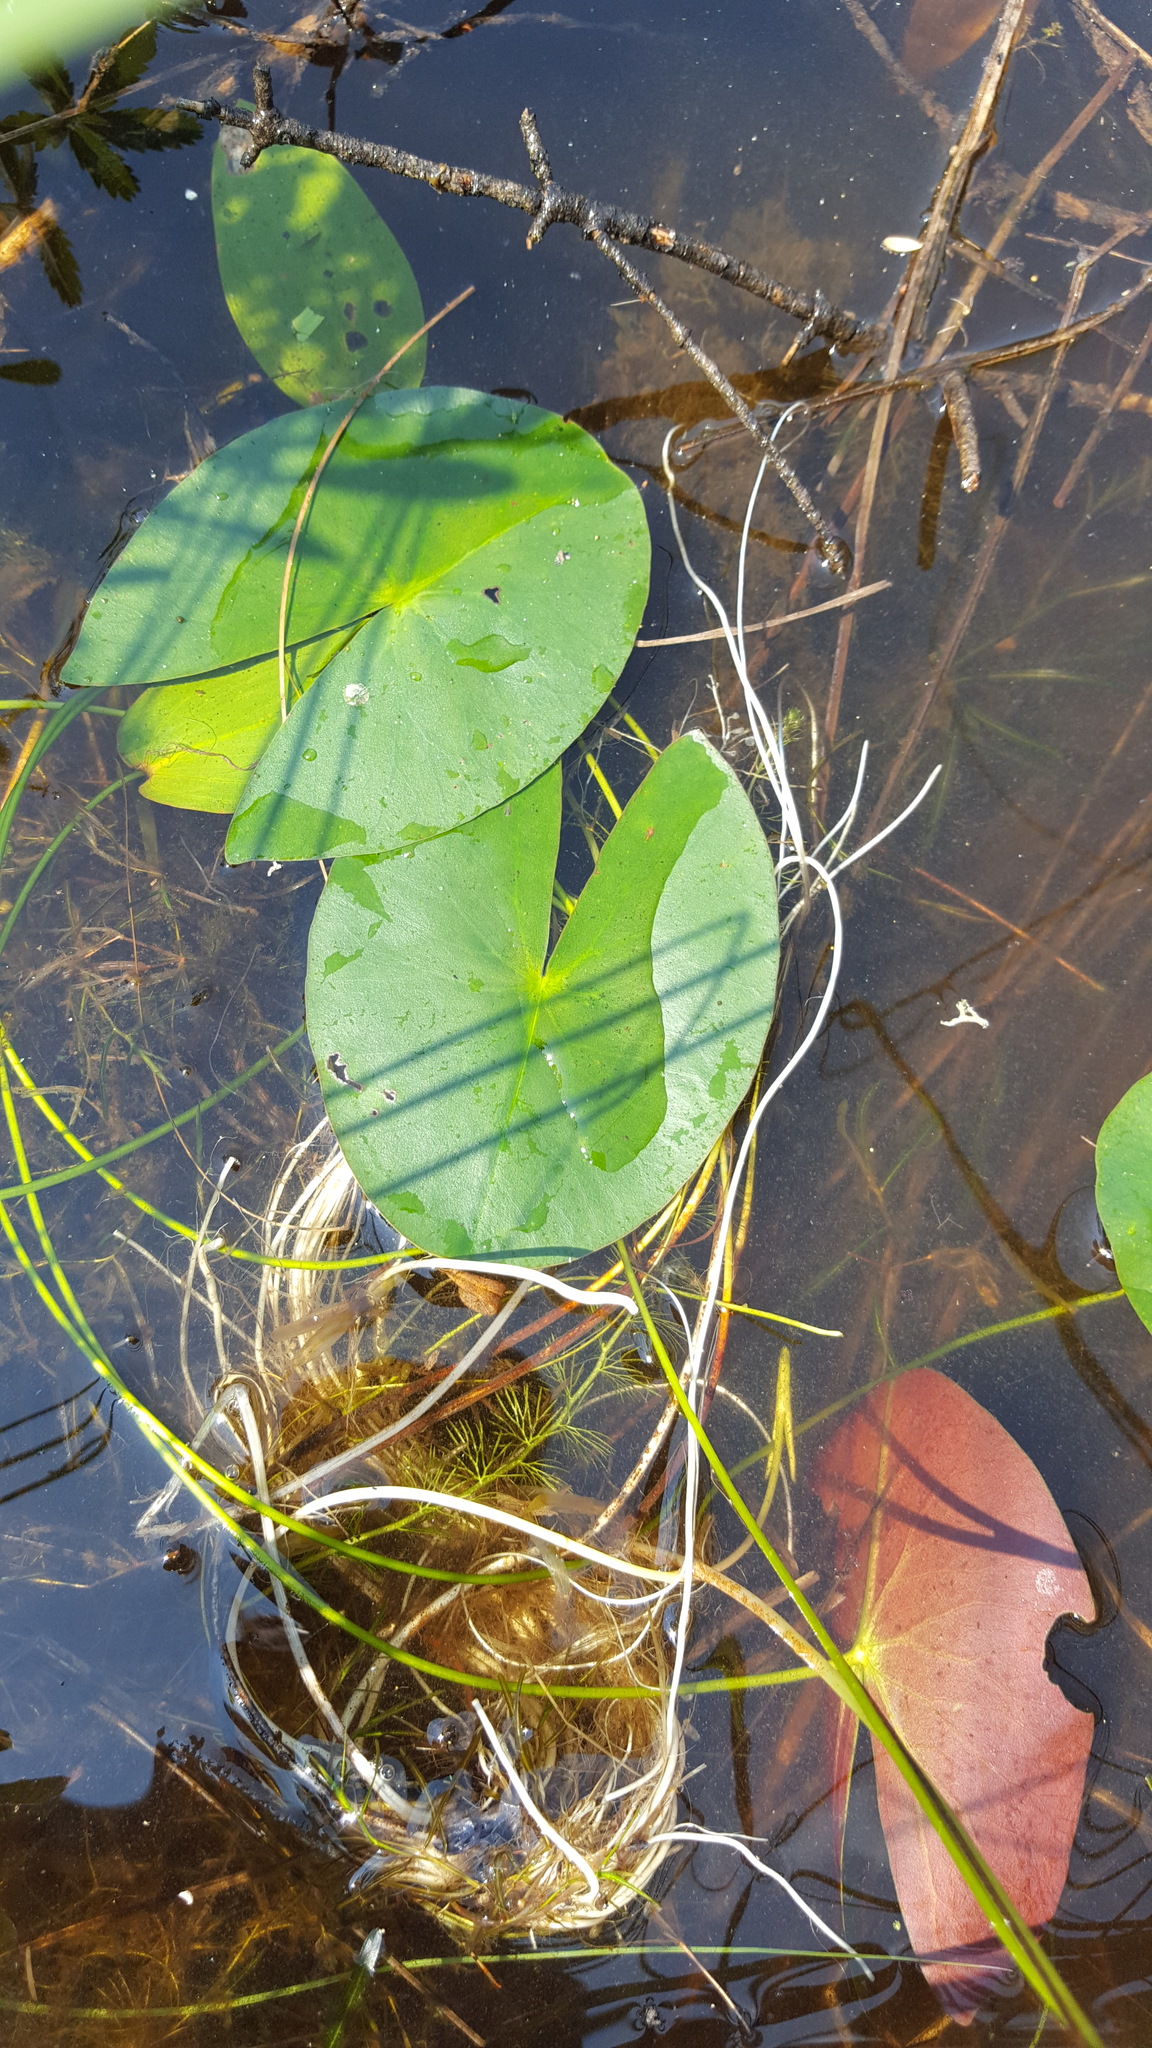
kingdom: Plantae
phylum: Tracheophyta
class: Magnoliopsida
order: Nymphaeales
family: Nymphaeaceae
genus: Nymphaea
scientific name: Nymphaea leibergii
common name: Dwarf water-lily
